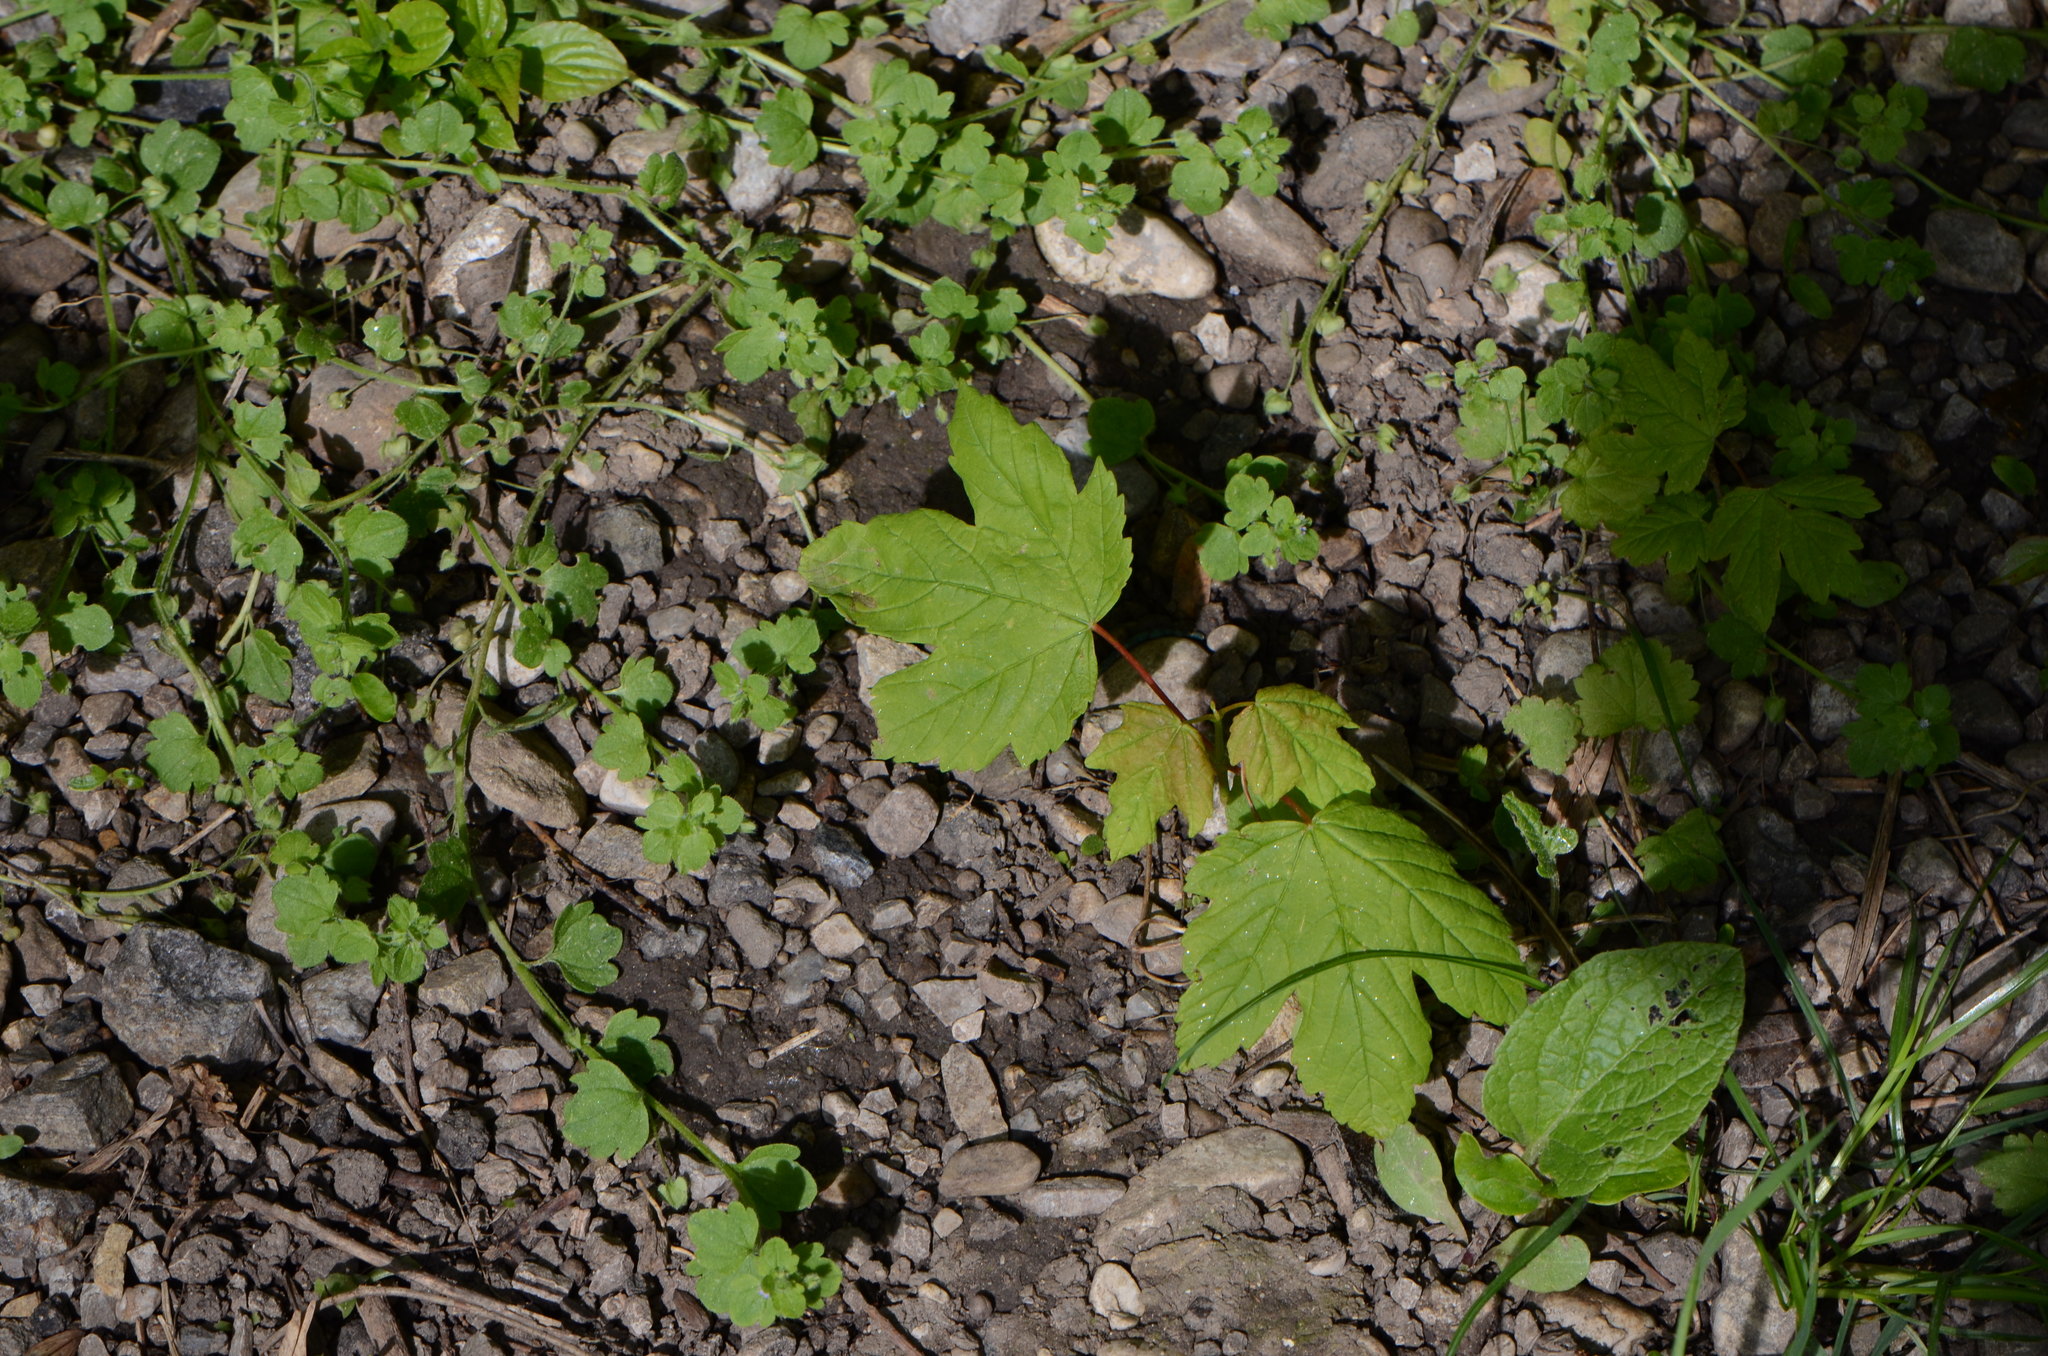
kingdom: Plantae
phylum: Tracheophyta
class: Magnoliopsida
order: Sapindales
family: Sapindaceae
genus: Acer
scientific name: Acer pseudoplatanus
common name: Sycamore
